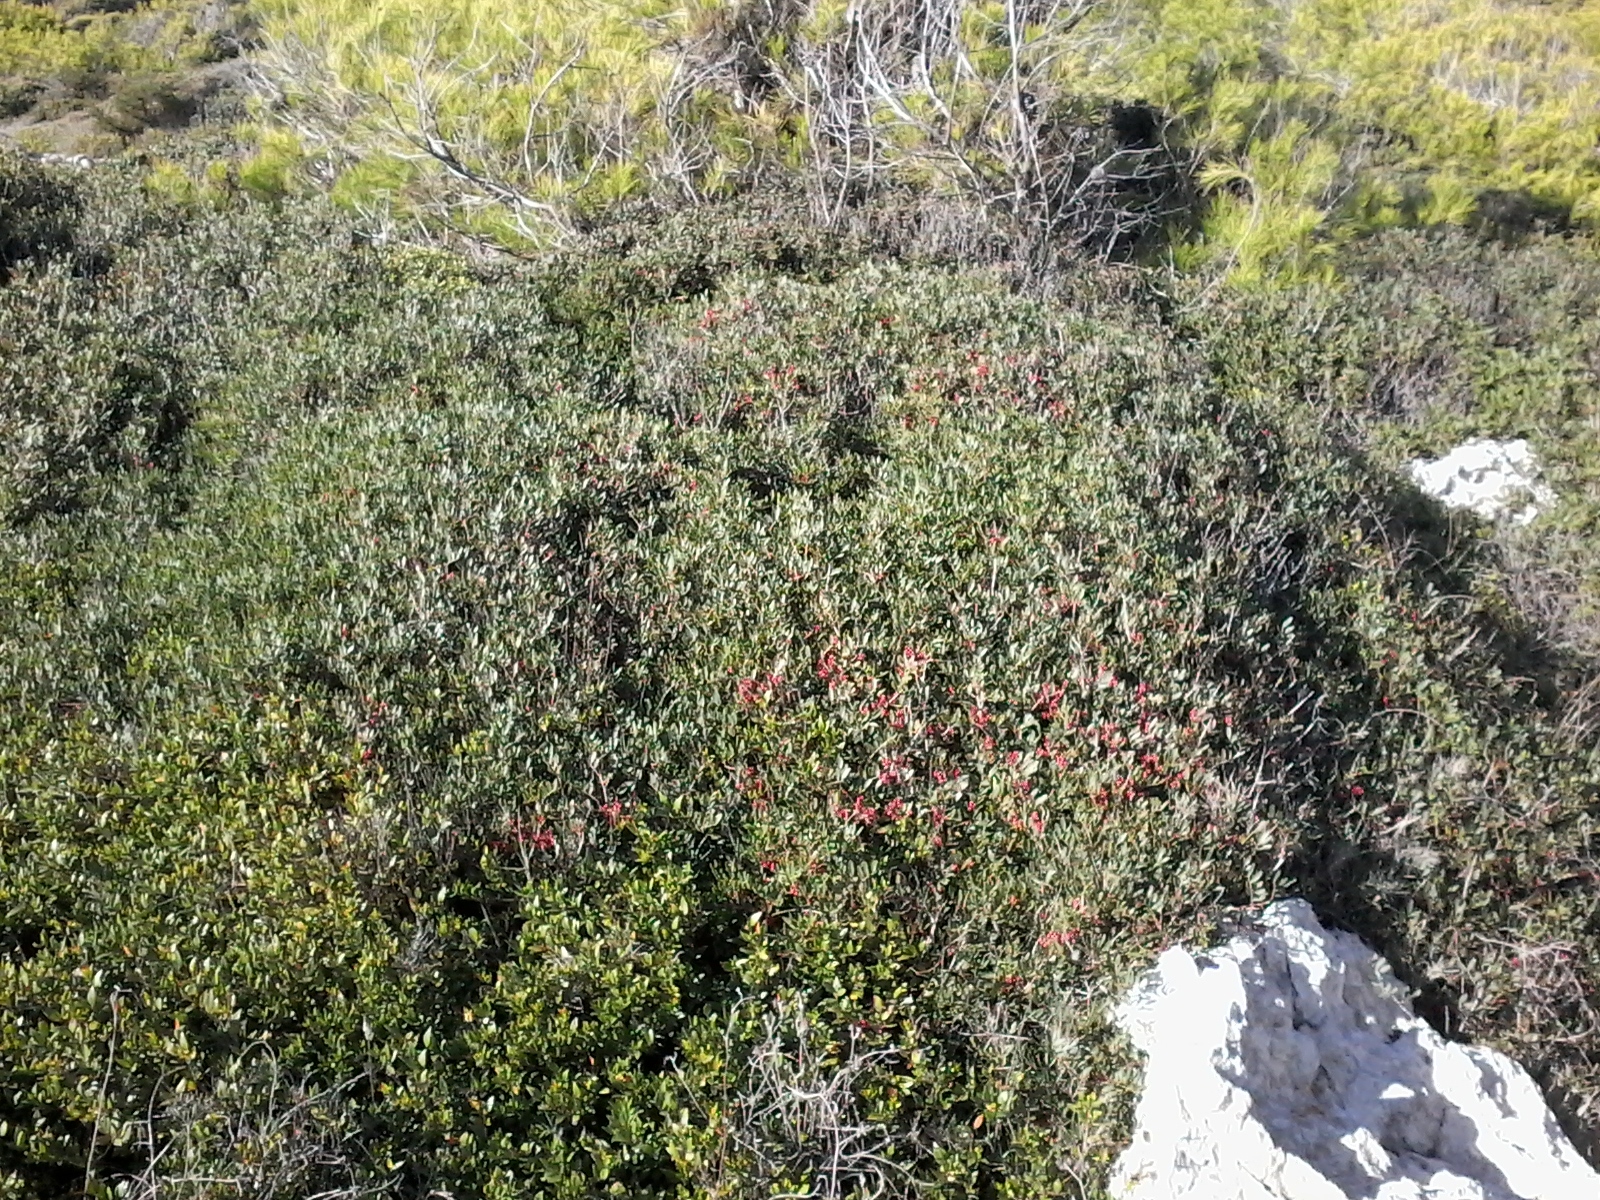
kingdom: Plantae
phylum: Tracheophyta
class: Magnoliopsida
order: Sapindales
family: Anacardiaceae
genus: Pistacia
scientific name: Pistacia lentiscus
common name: Lentisk
